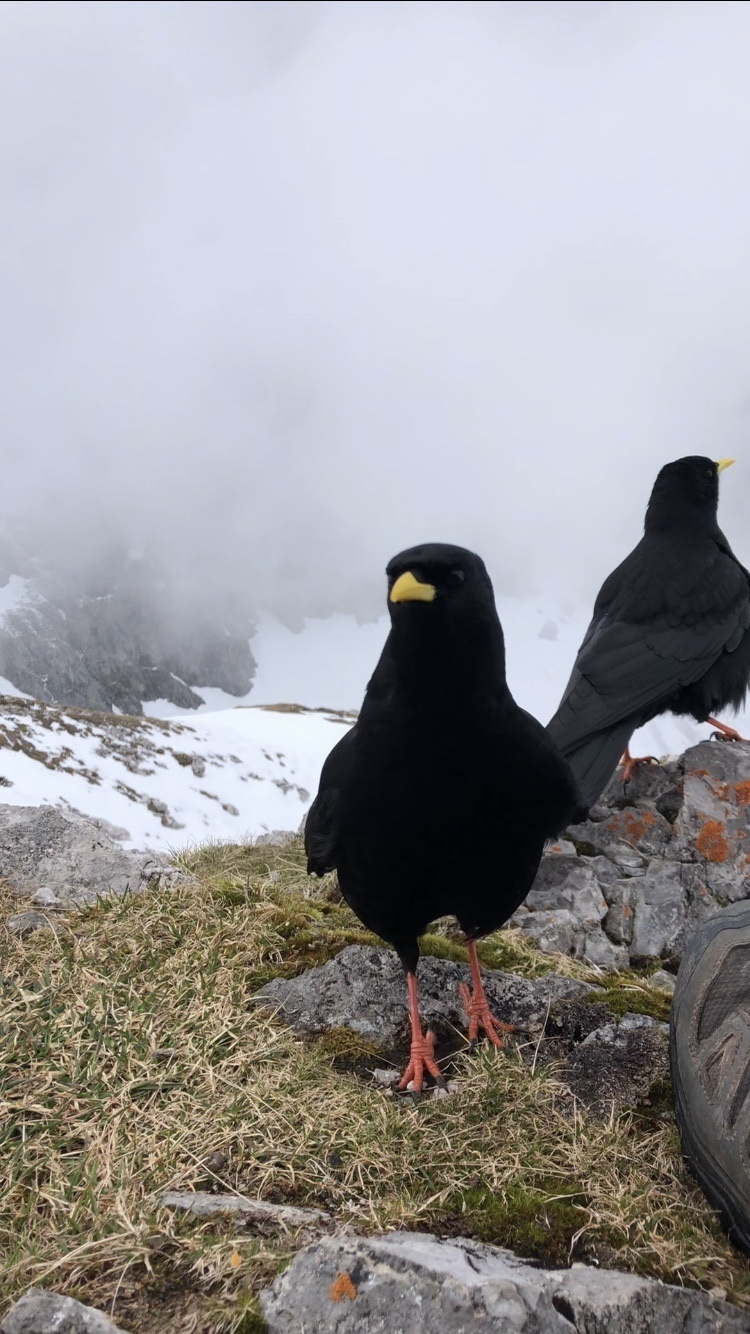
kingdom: Animalia
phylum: Chordata
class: Aves
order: Passeriformes
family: Corvidae
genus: Pyrrhocorax
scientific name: Pyrrhocorax graculus
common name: Alpine chough
